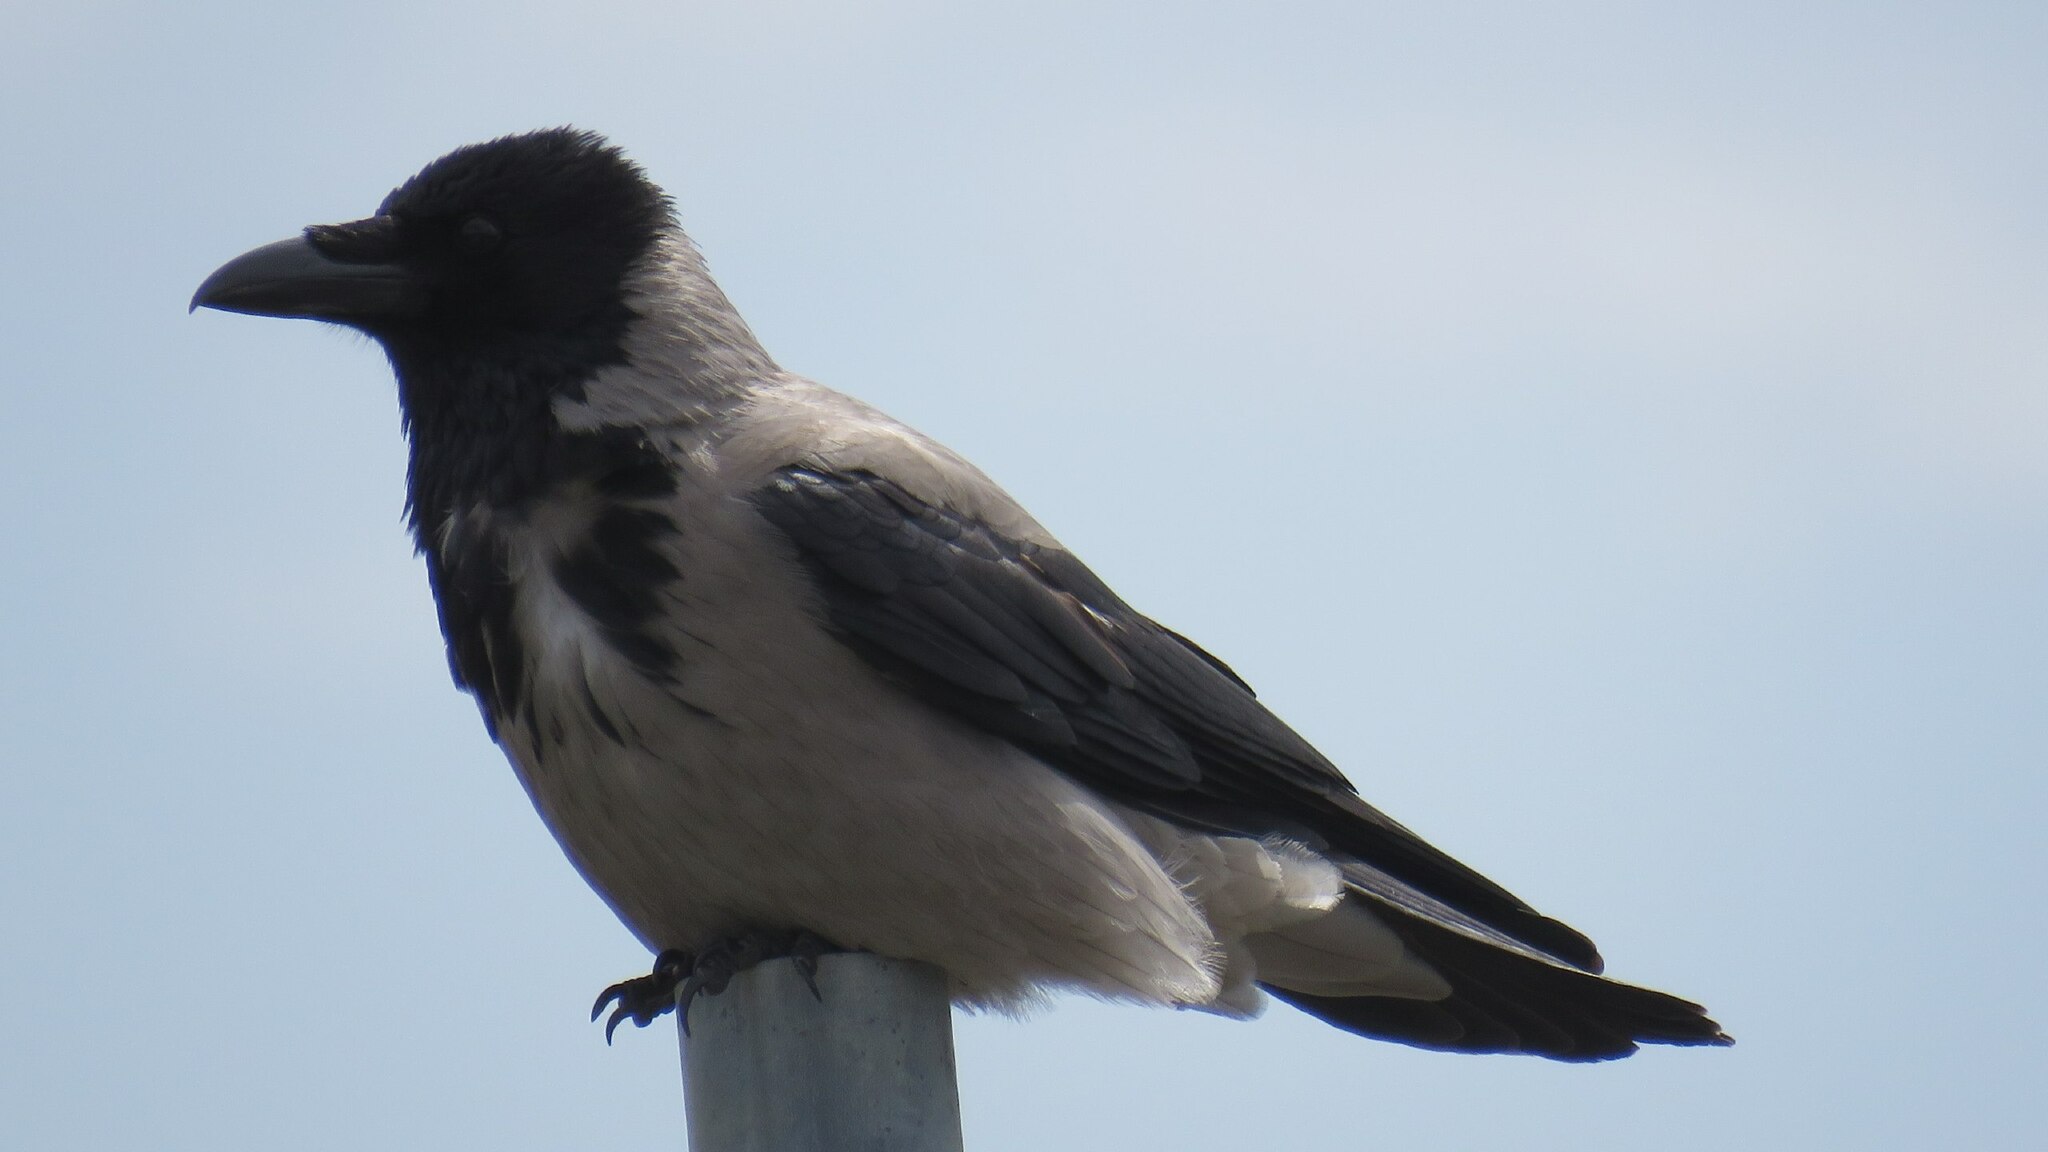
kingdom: Animalia
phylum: Chordata
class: Aves
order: Passeriformes
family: Corvidae
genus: Corvus
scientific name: Corvus cornix
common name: Hooded crow
